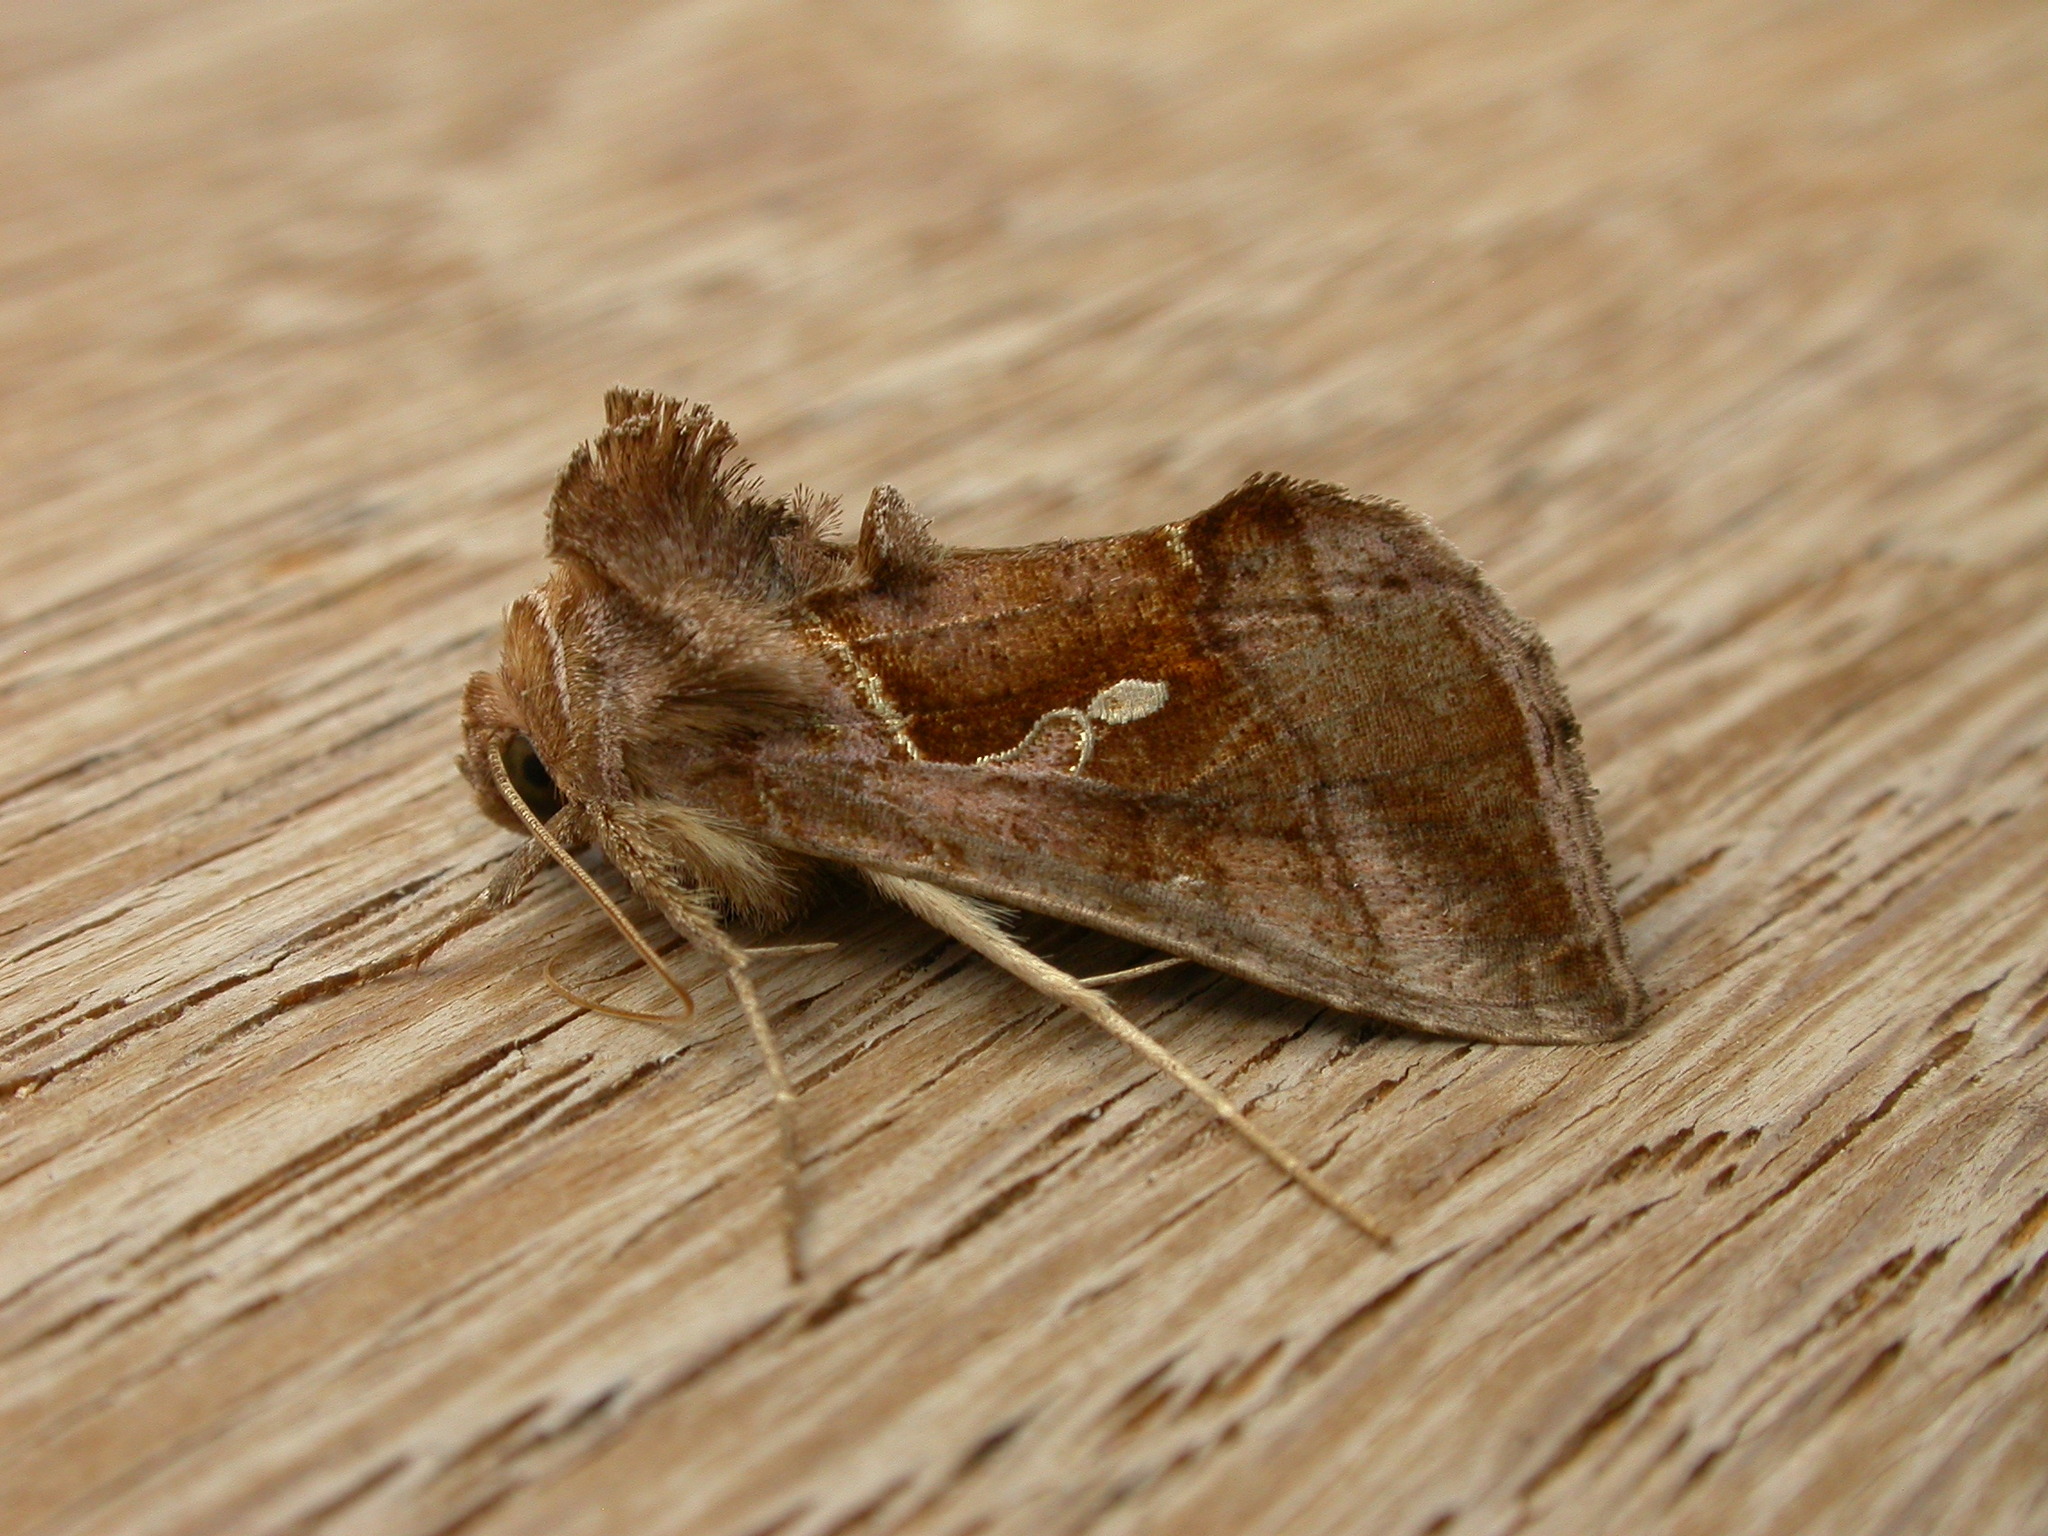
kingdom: Animalia
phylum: Arthropoda
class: Insecta
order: Lepidoptera
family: Noctuidae
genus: Chrysodeixis
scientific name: Chrysodeixis subsidens
